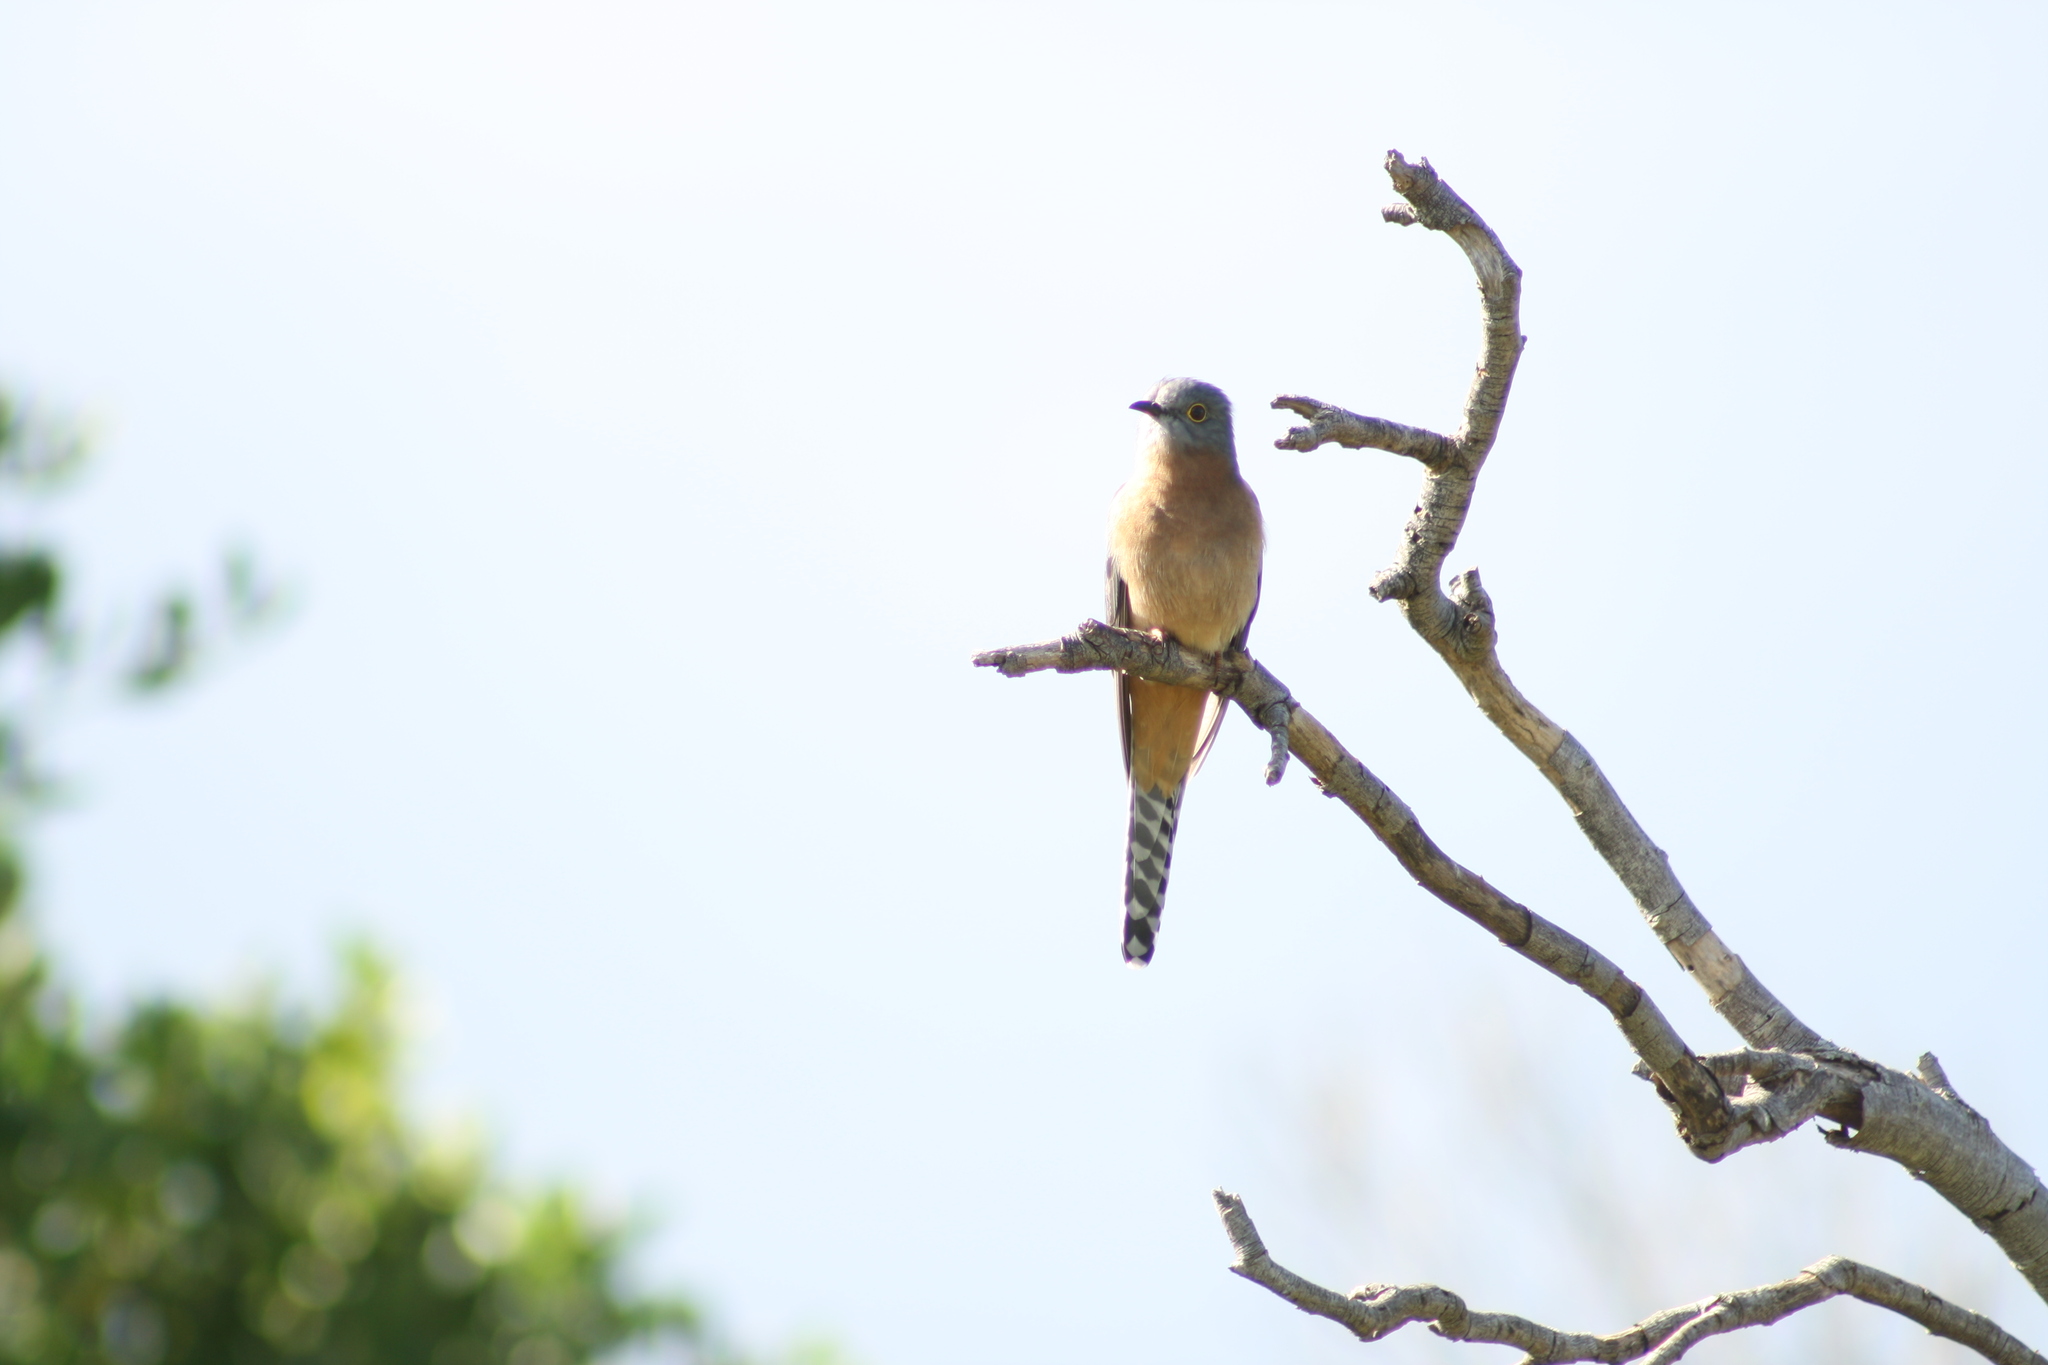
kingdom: Animalia
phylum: Chordata
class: Aves
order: Cuculiformes
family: Cuculidae
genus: Cacomantis
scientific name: Cacomantis flabelliformis
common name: Fan-tailed cuckoo
